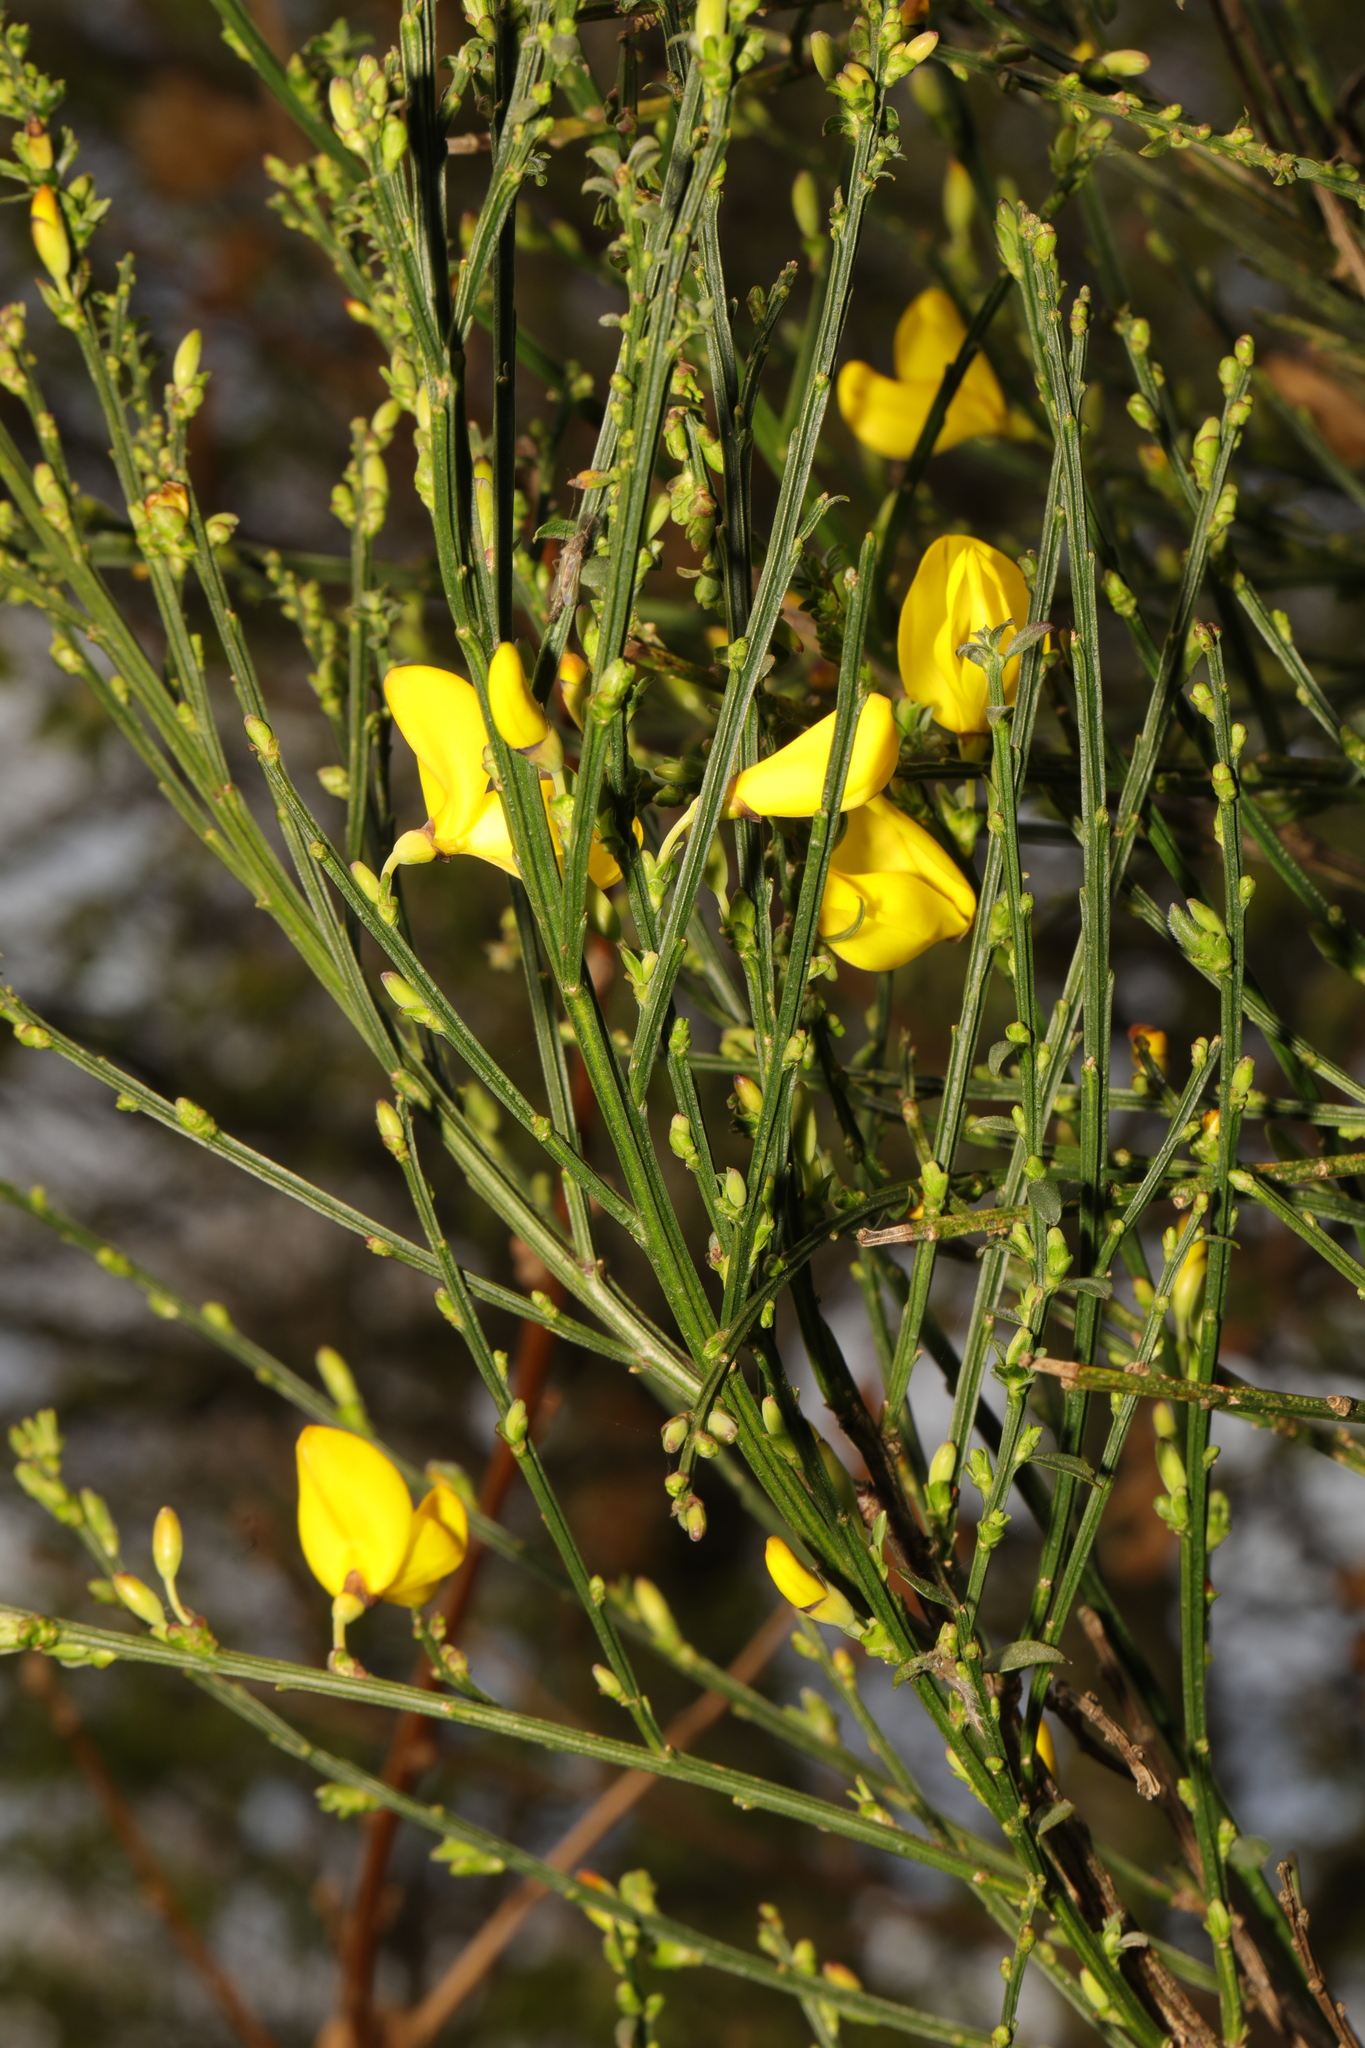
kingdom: Plantae
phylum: Tracheophyta
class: Magnoliopsida
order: Fabales
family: Fabaceae
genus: Cytisus
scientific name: Cytisus scoparius
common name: Scotch broom
